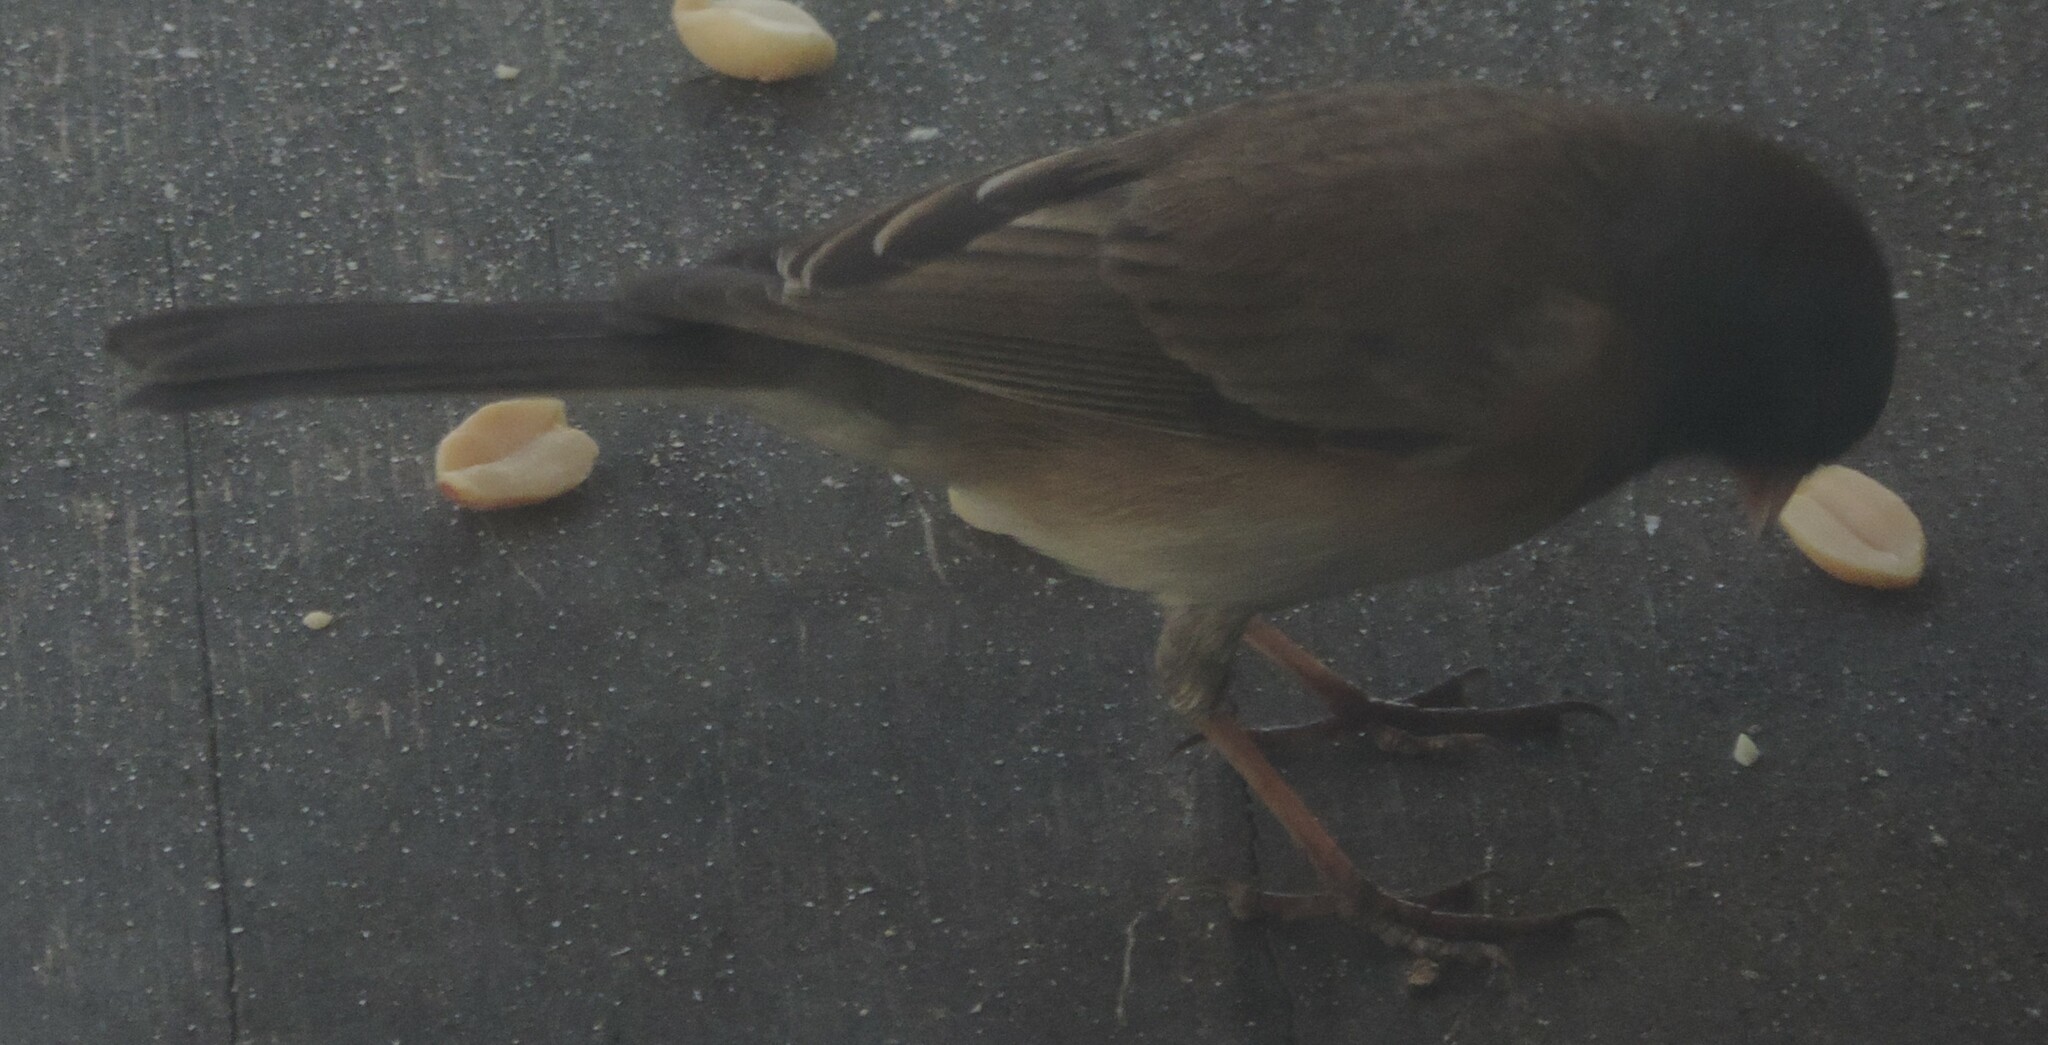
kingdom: Animalia
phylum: Chordata
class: Aves
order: Passeriformes
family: Passerellidae
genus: Junco
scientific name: Junco hyemalis
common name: Dark-eyed junco
